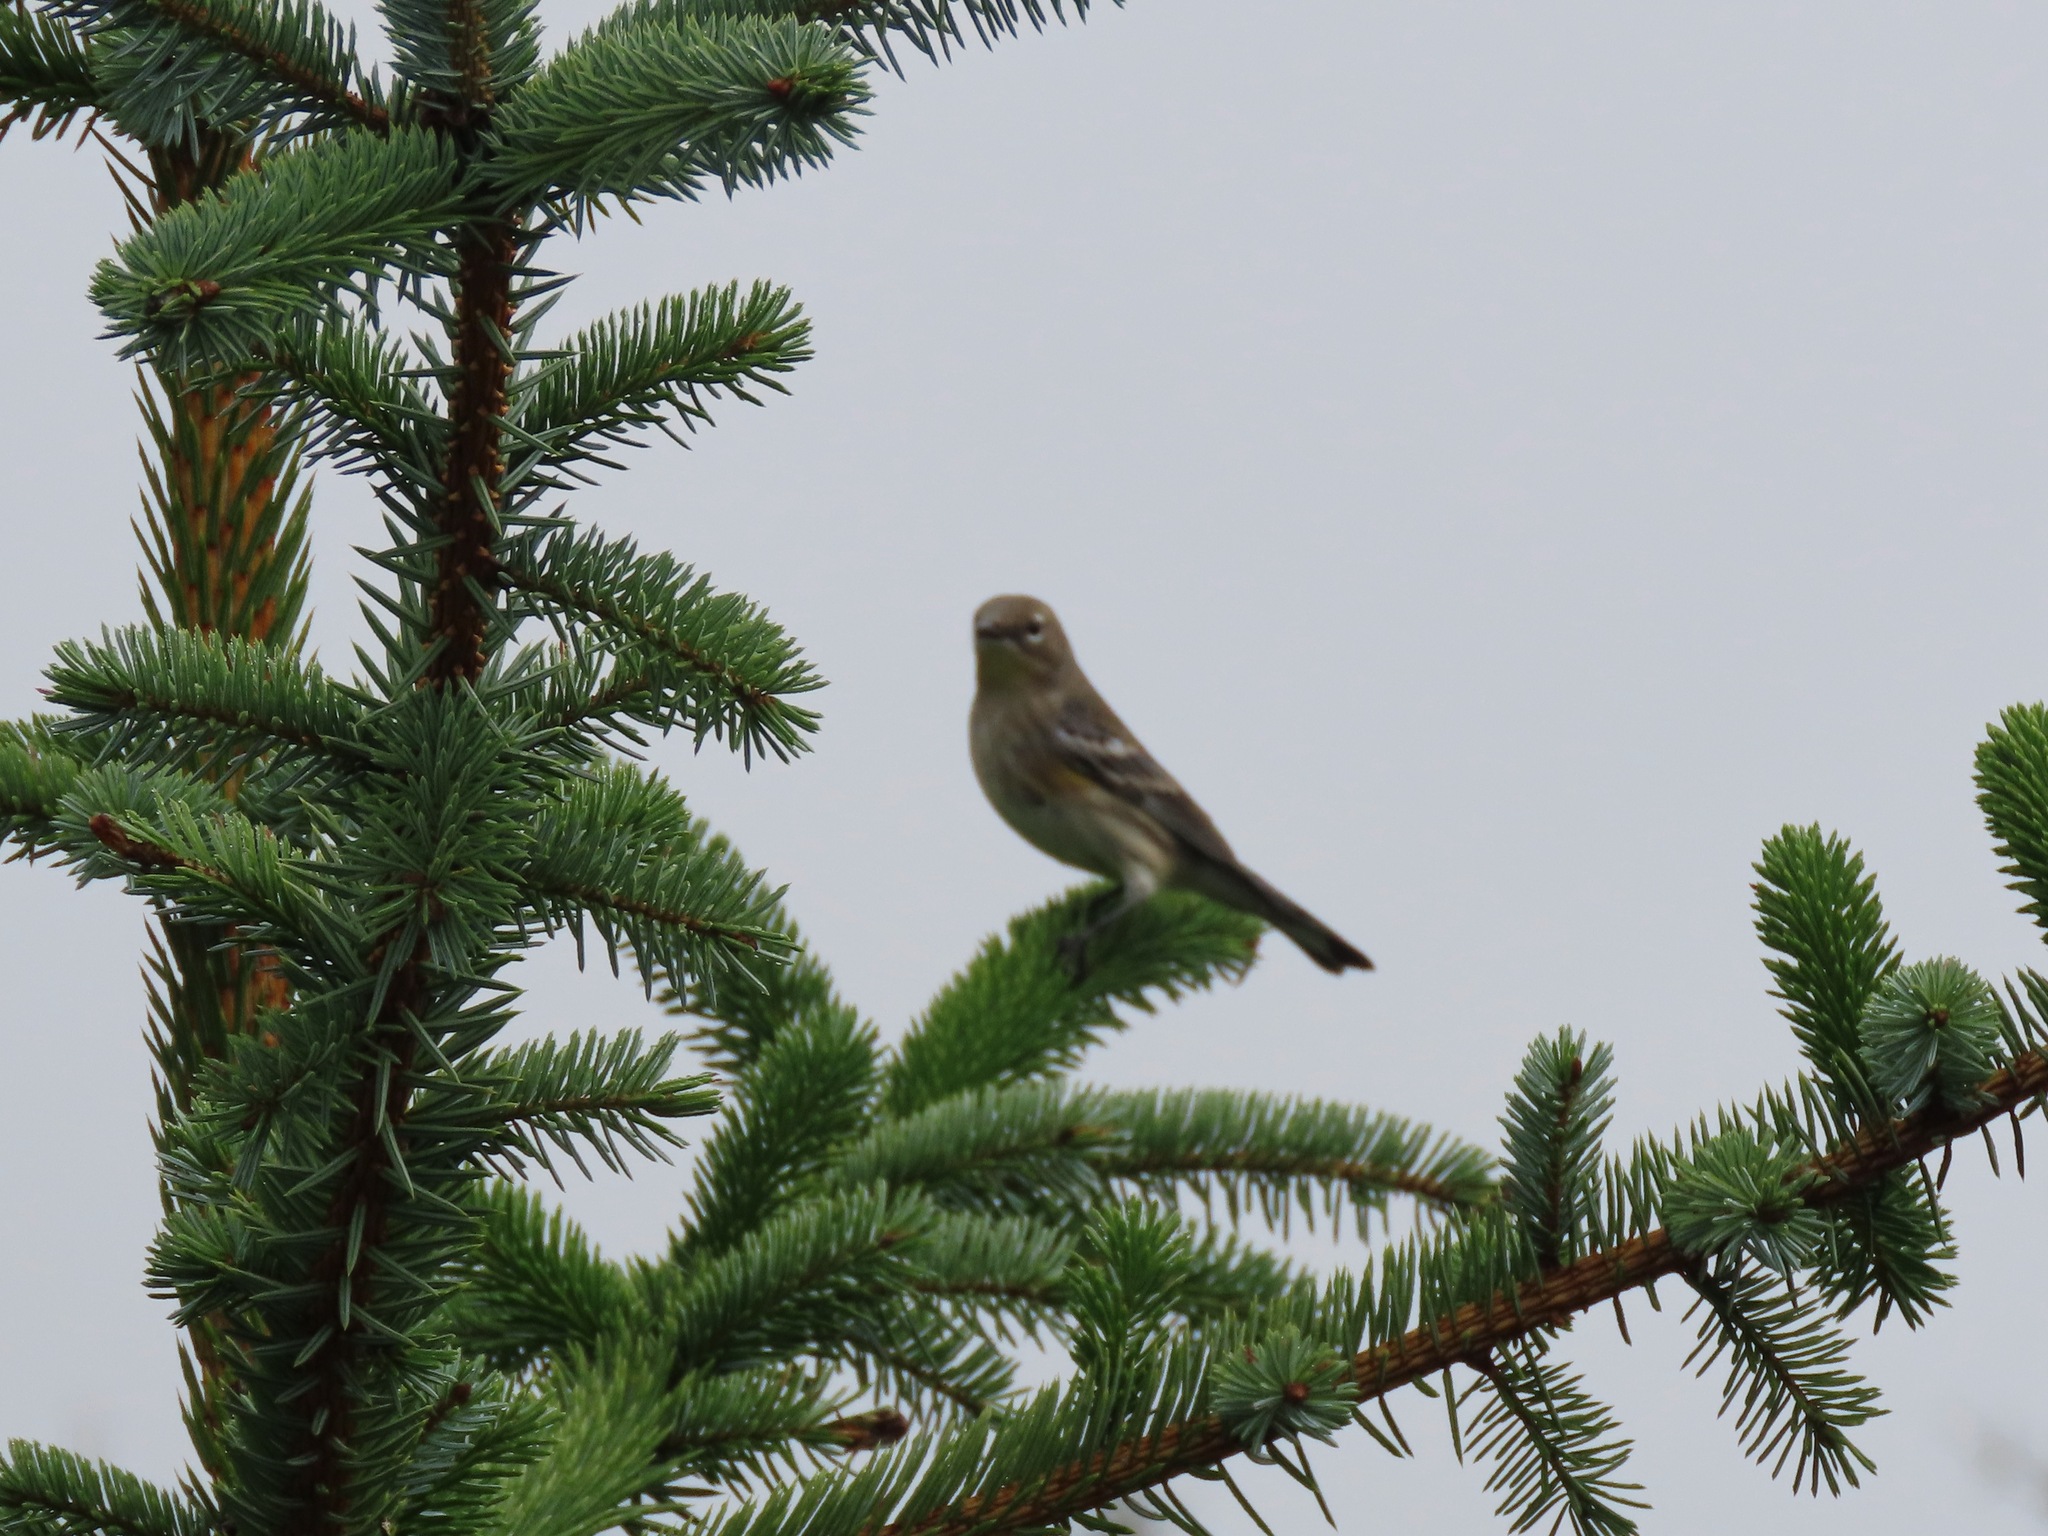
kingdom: Animalia
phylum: Chordata
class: Aves
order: Passeriformes
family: Parulidae
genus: Setophaga
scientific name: Setophaga coronata
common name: Myrtle warbler
